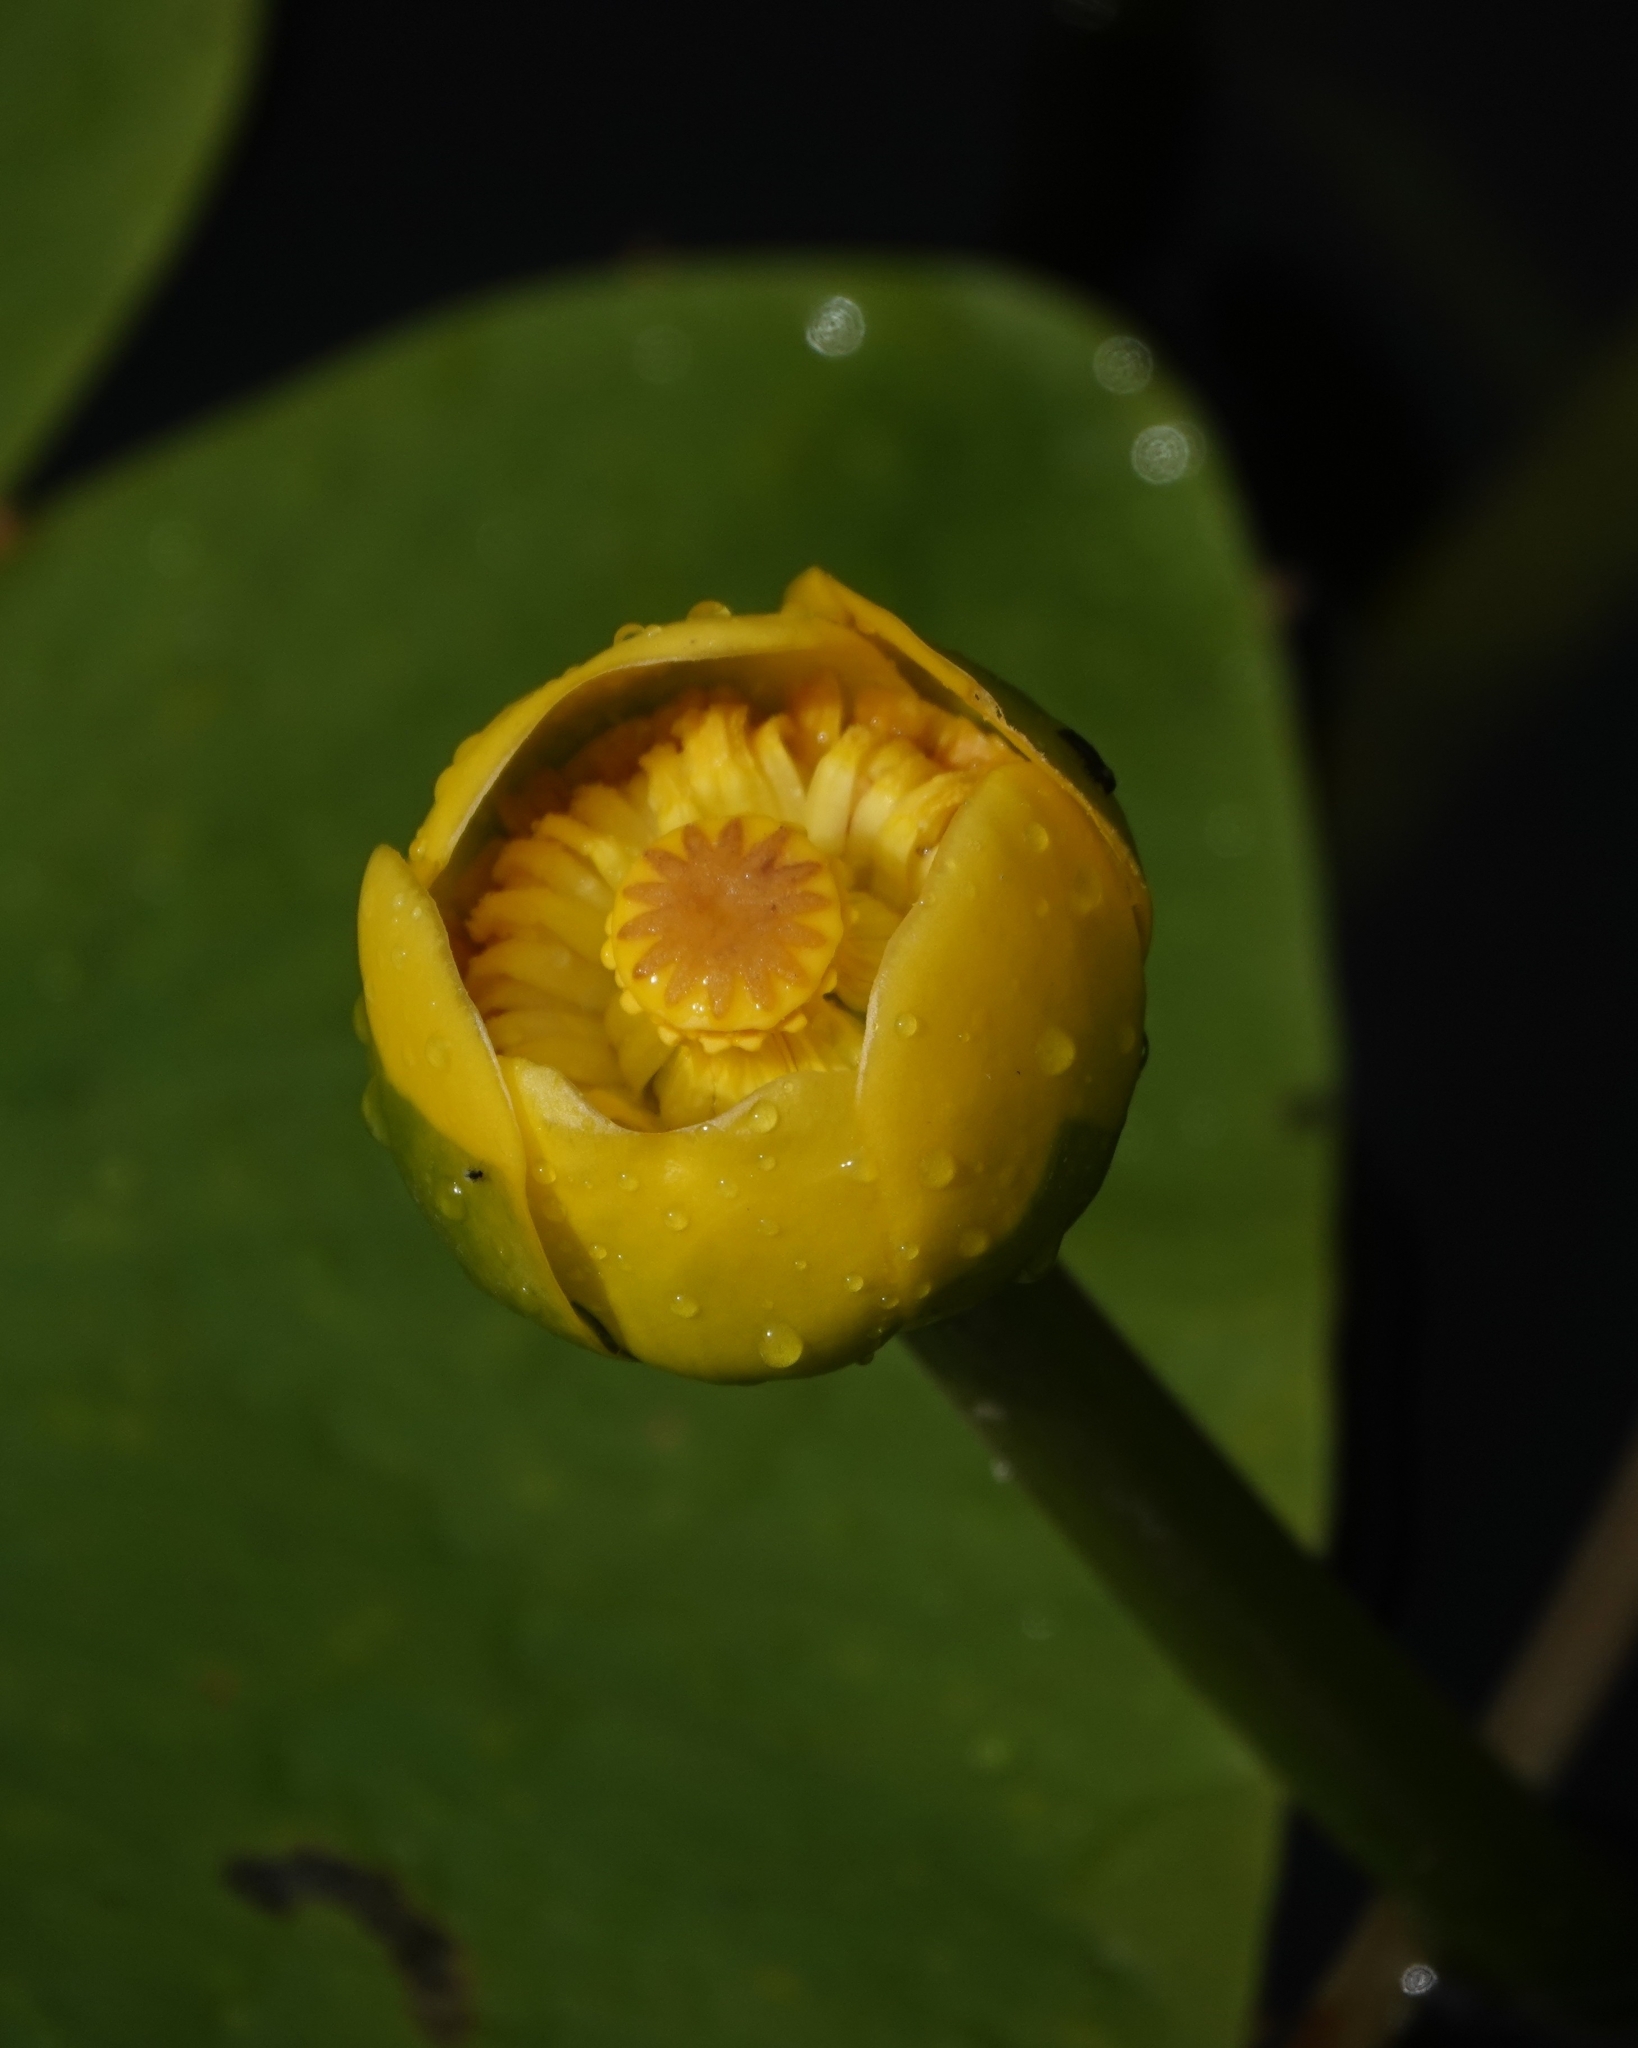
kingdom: Plantae
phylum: Tracheophyta
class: Magnoliopsida
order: Nymphaeales
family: Nymphaeaceae
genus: Nuphar
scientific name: Nuphar lutea
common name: Yellow water-lily
